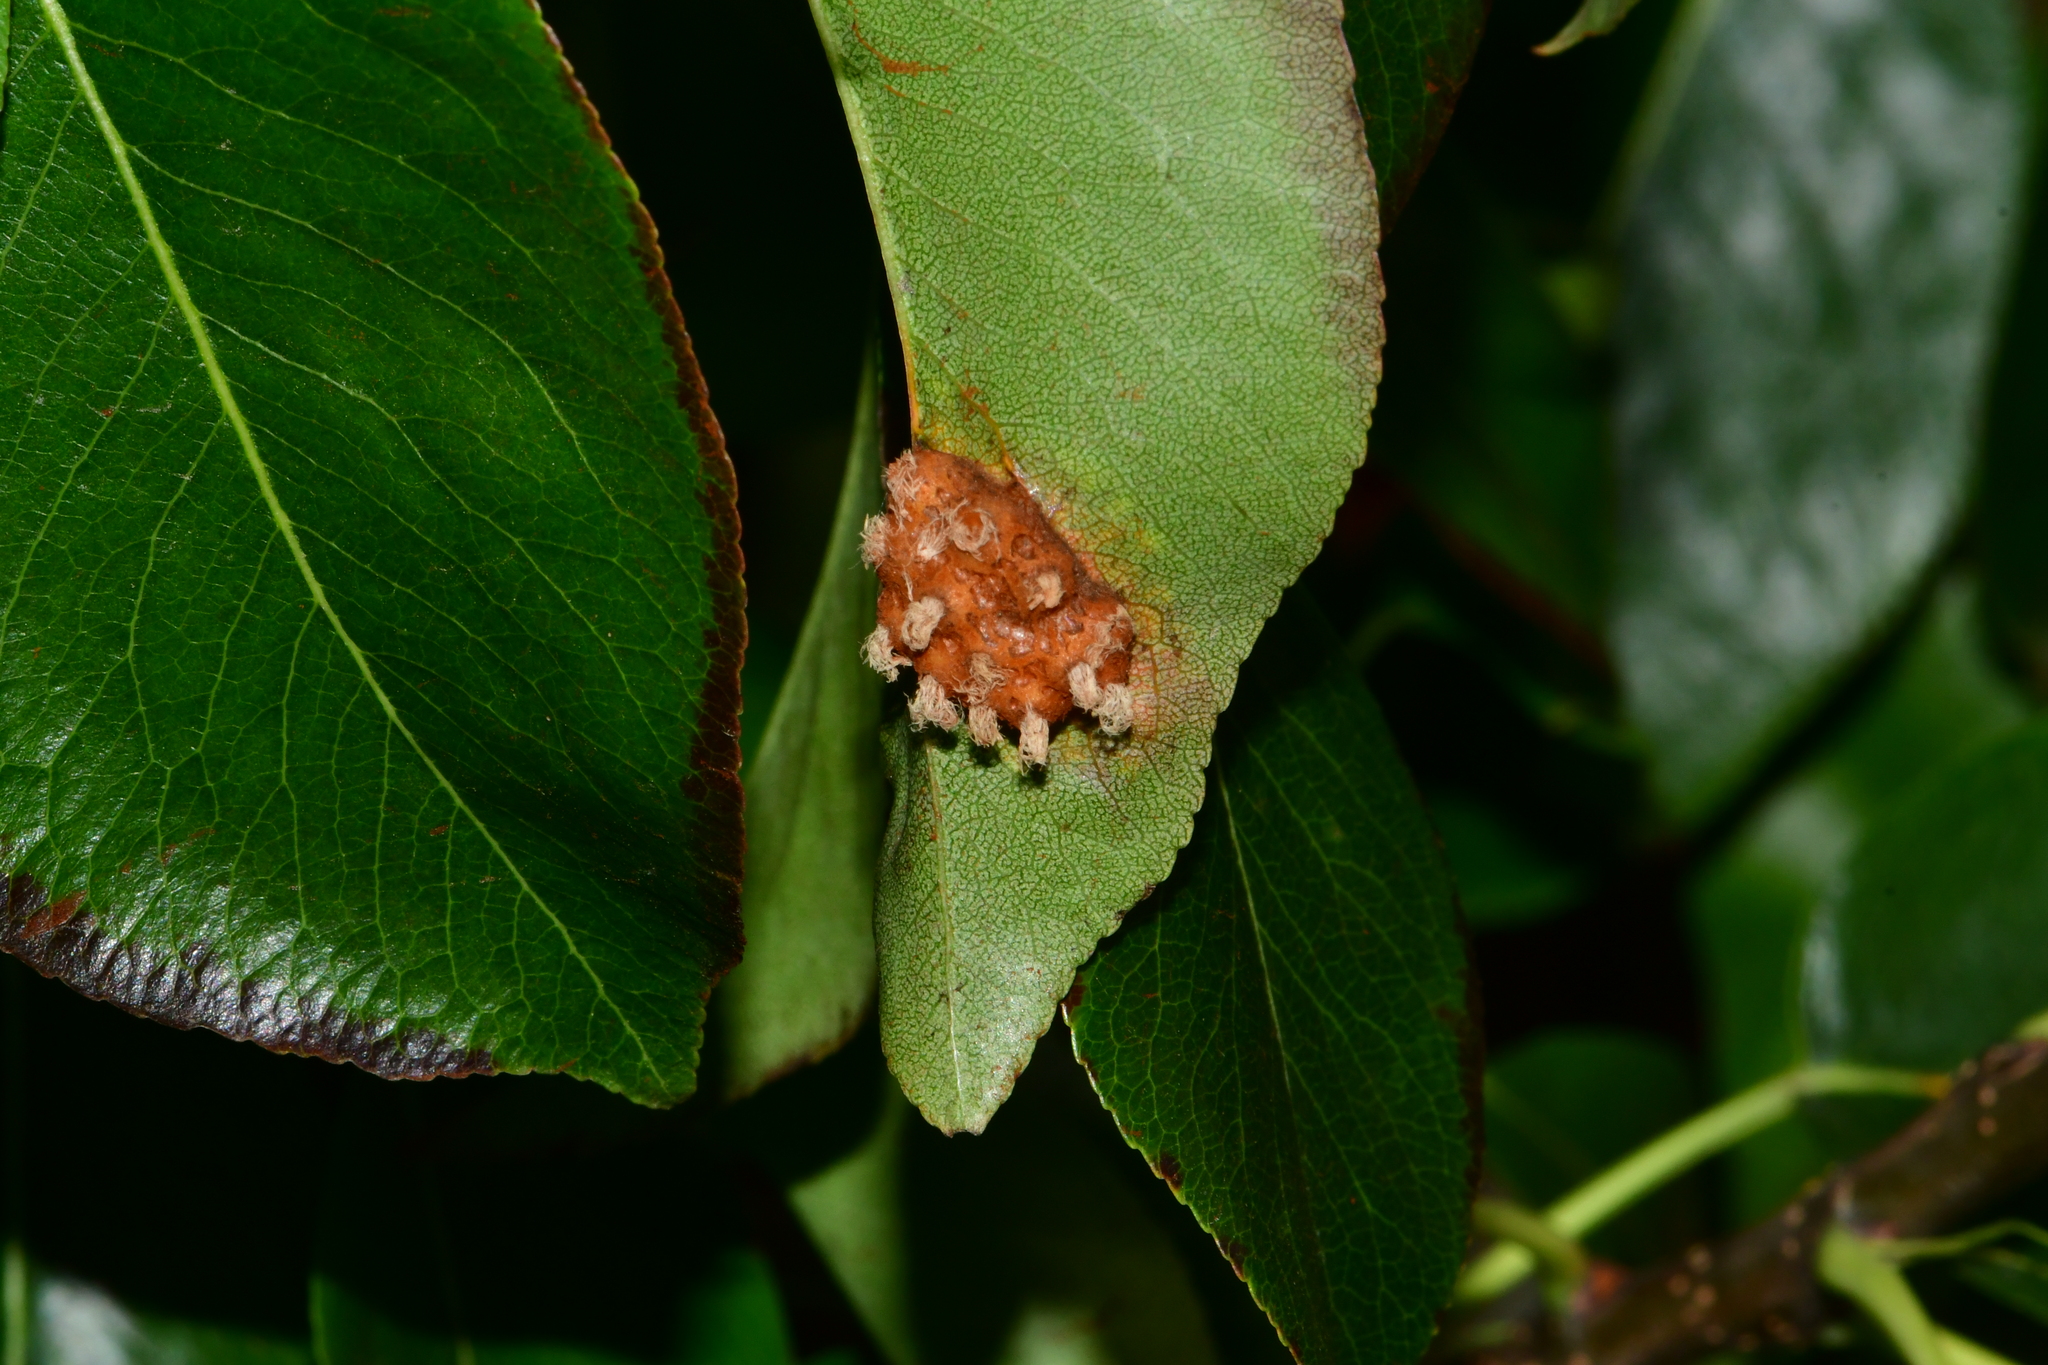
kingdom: Fungi
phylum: Basidiomycota
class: Pucciniomycetes
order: Pucciniales
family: Gymnosporangiaceae
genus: Gymnosporangium
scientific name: Gymnosporangium sabinae
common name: Pear trellis rust fungus
